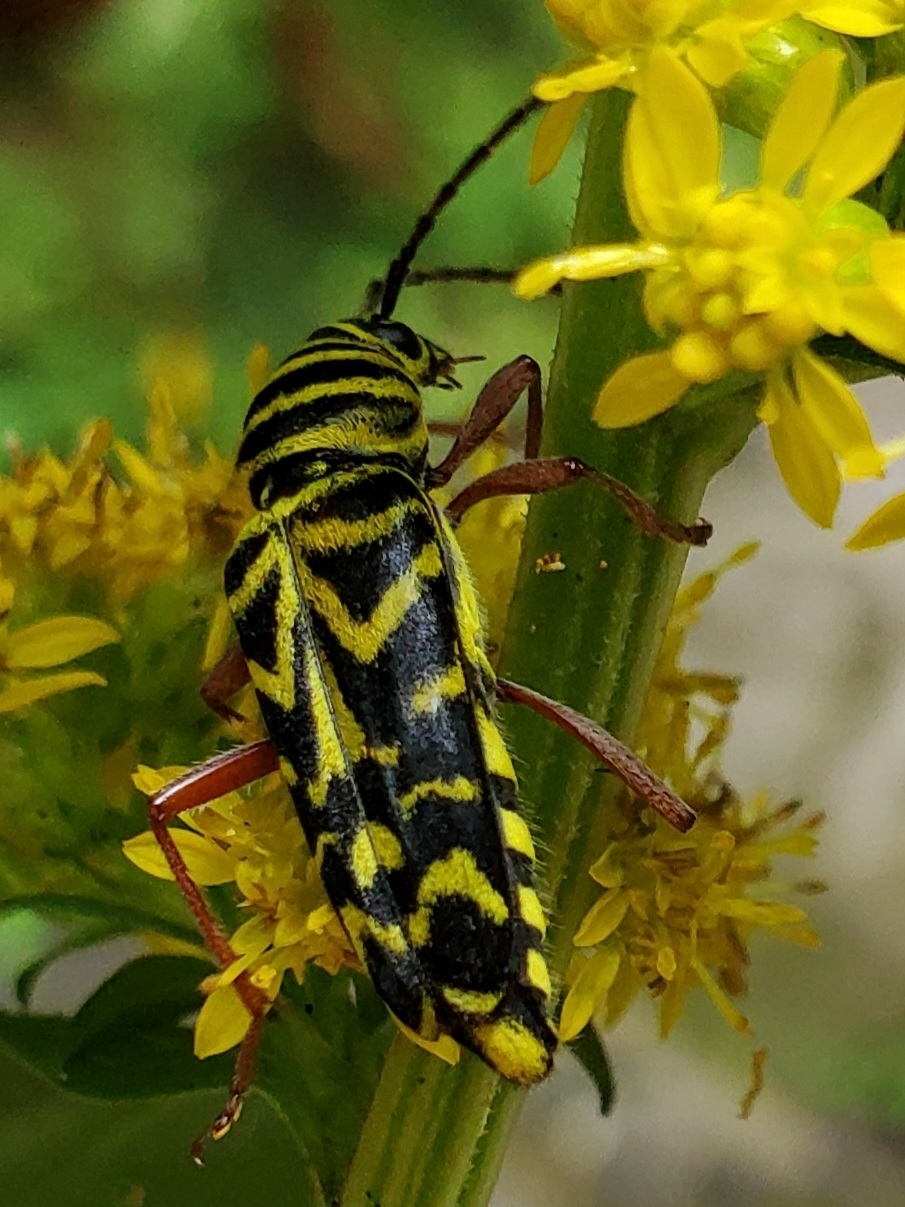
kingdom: Animalia
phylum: Arthropoda
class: Insecta
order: Coleoptera
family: Cerambycidae
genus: Megacyllene
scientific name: Megacyllene robiniae
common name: Locust borer
